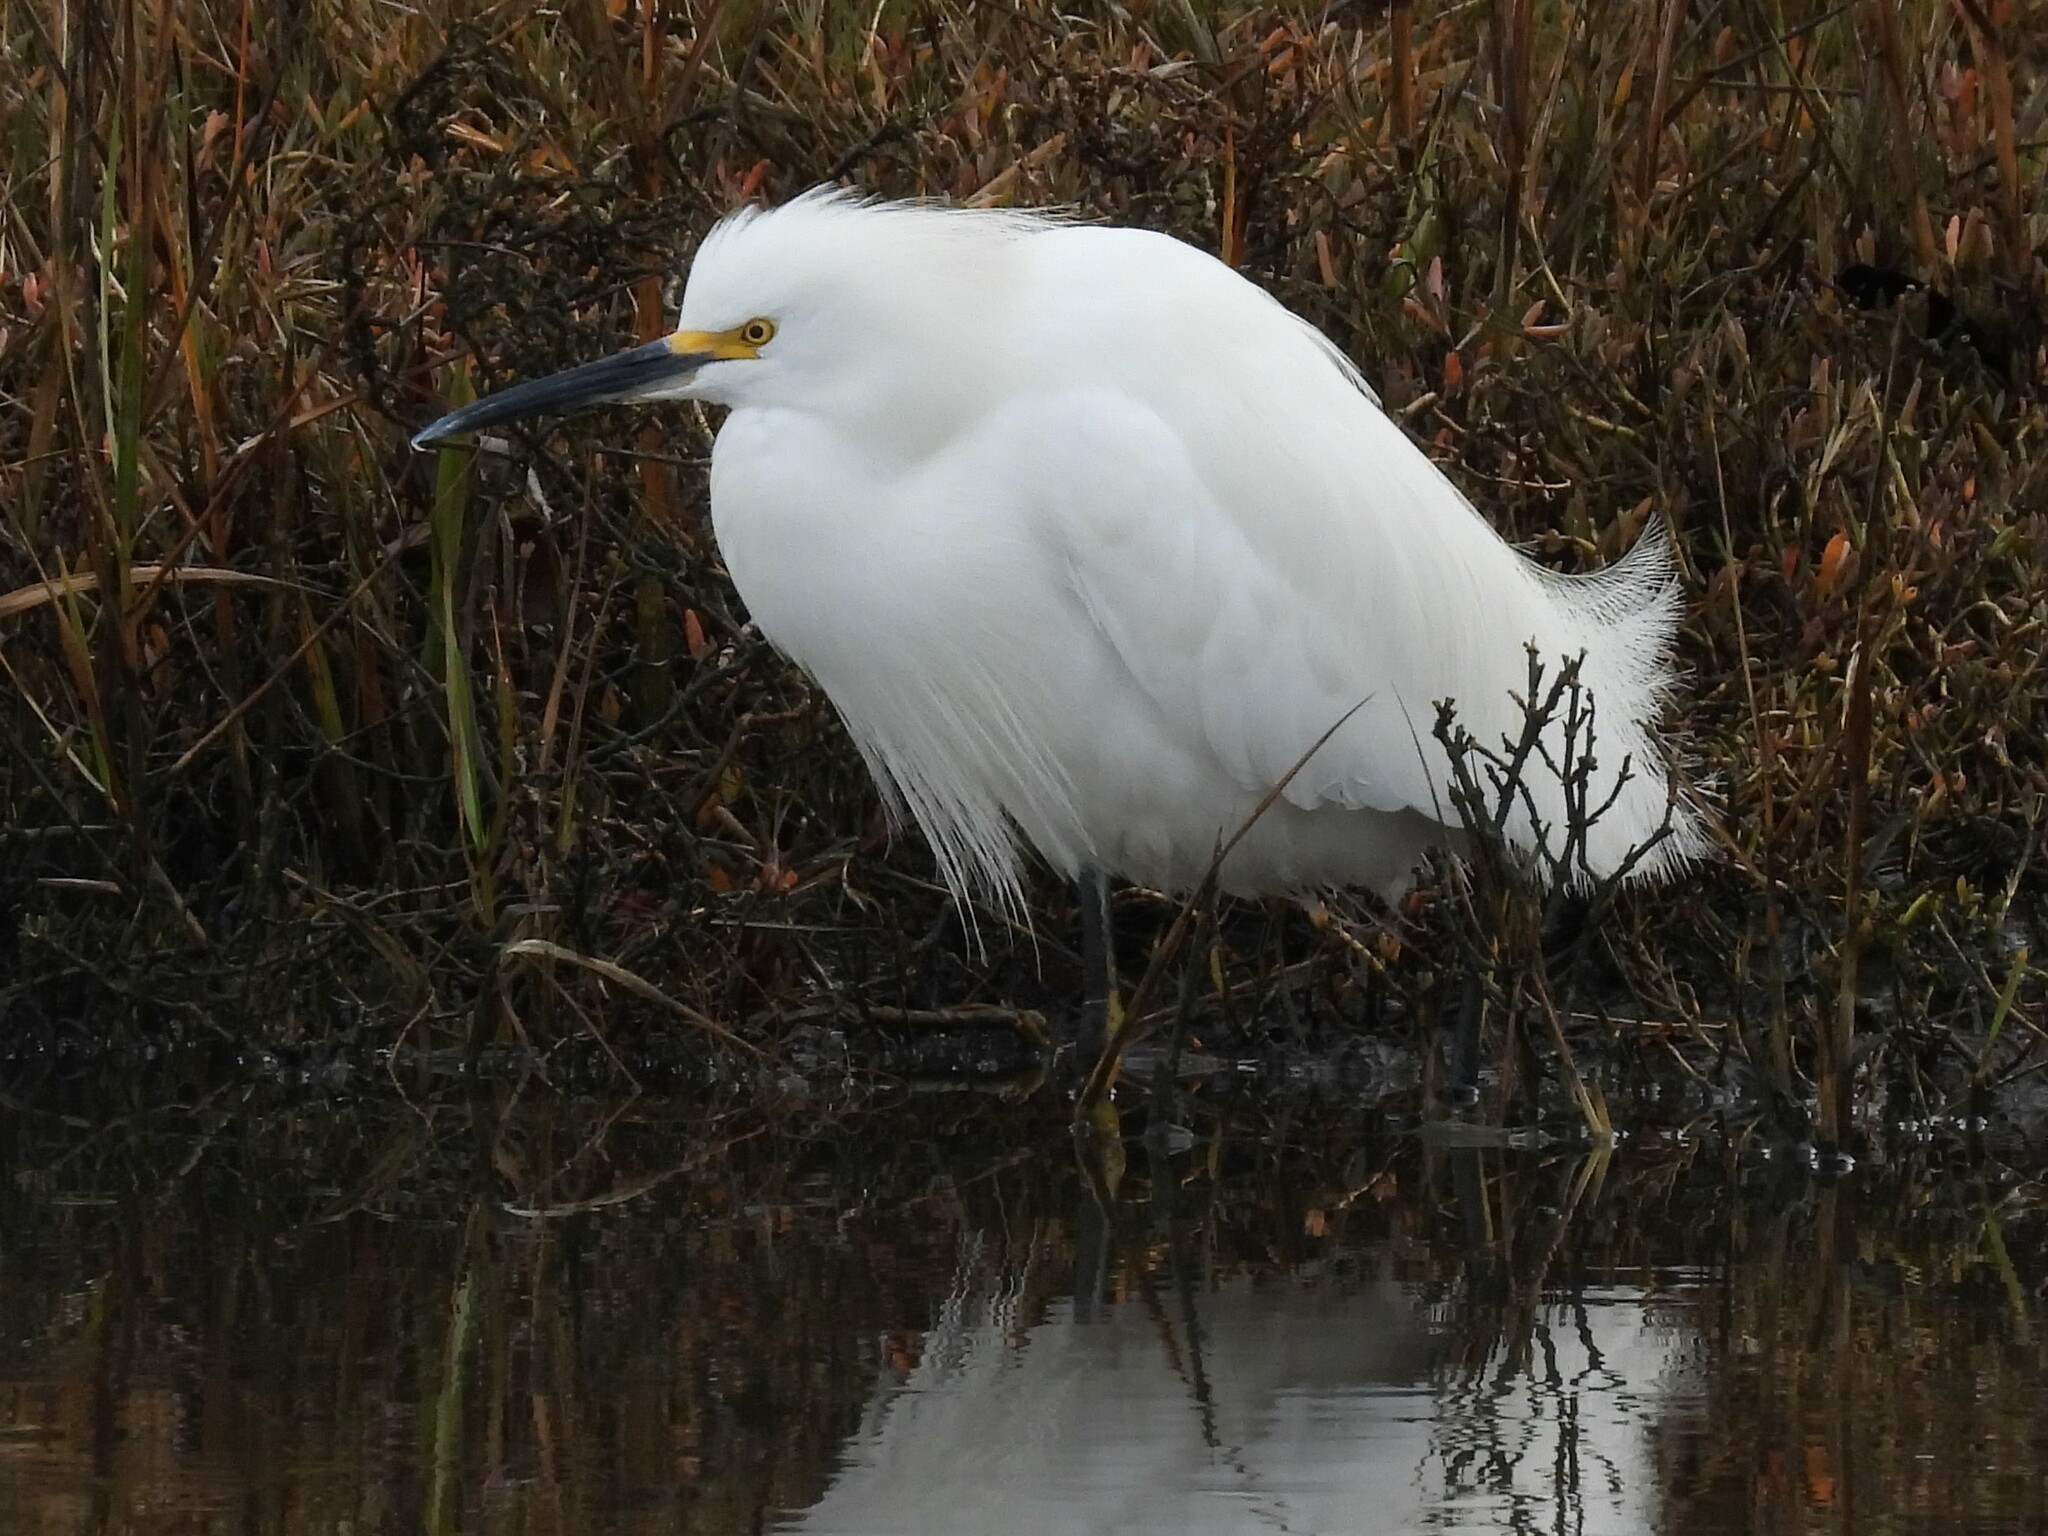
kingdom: Animalia
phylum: Chordata
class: Aves
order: Pelecaniformes
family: Ardeidae
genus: Egretta
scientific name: Egretta thula
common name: Snowy egret
